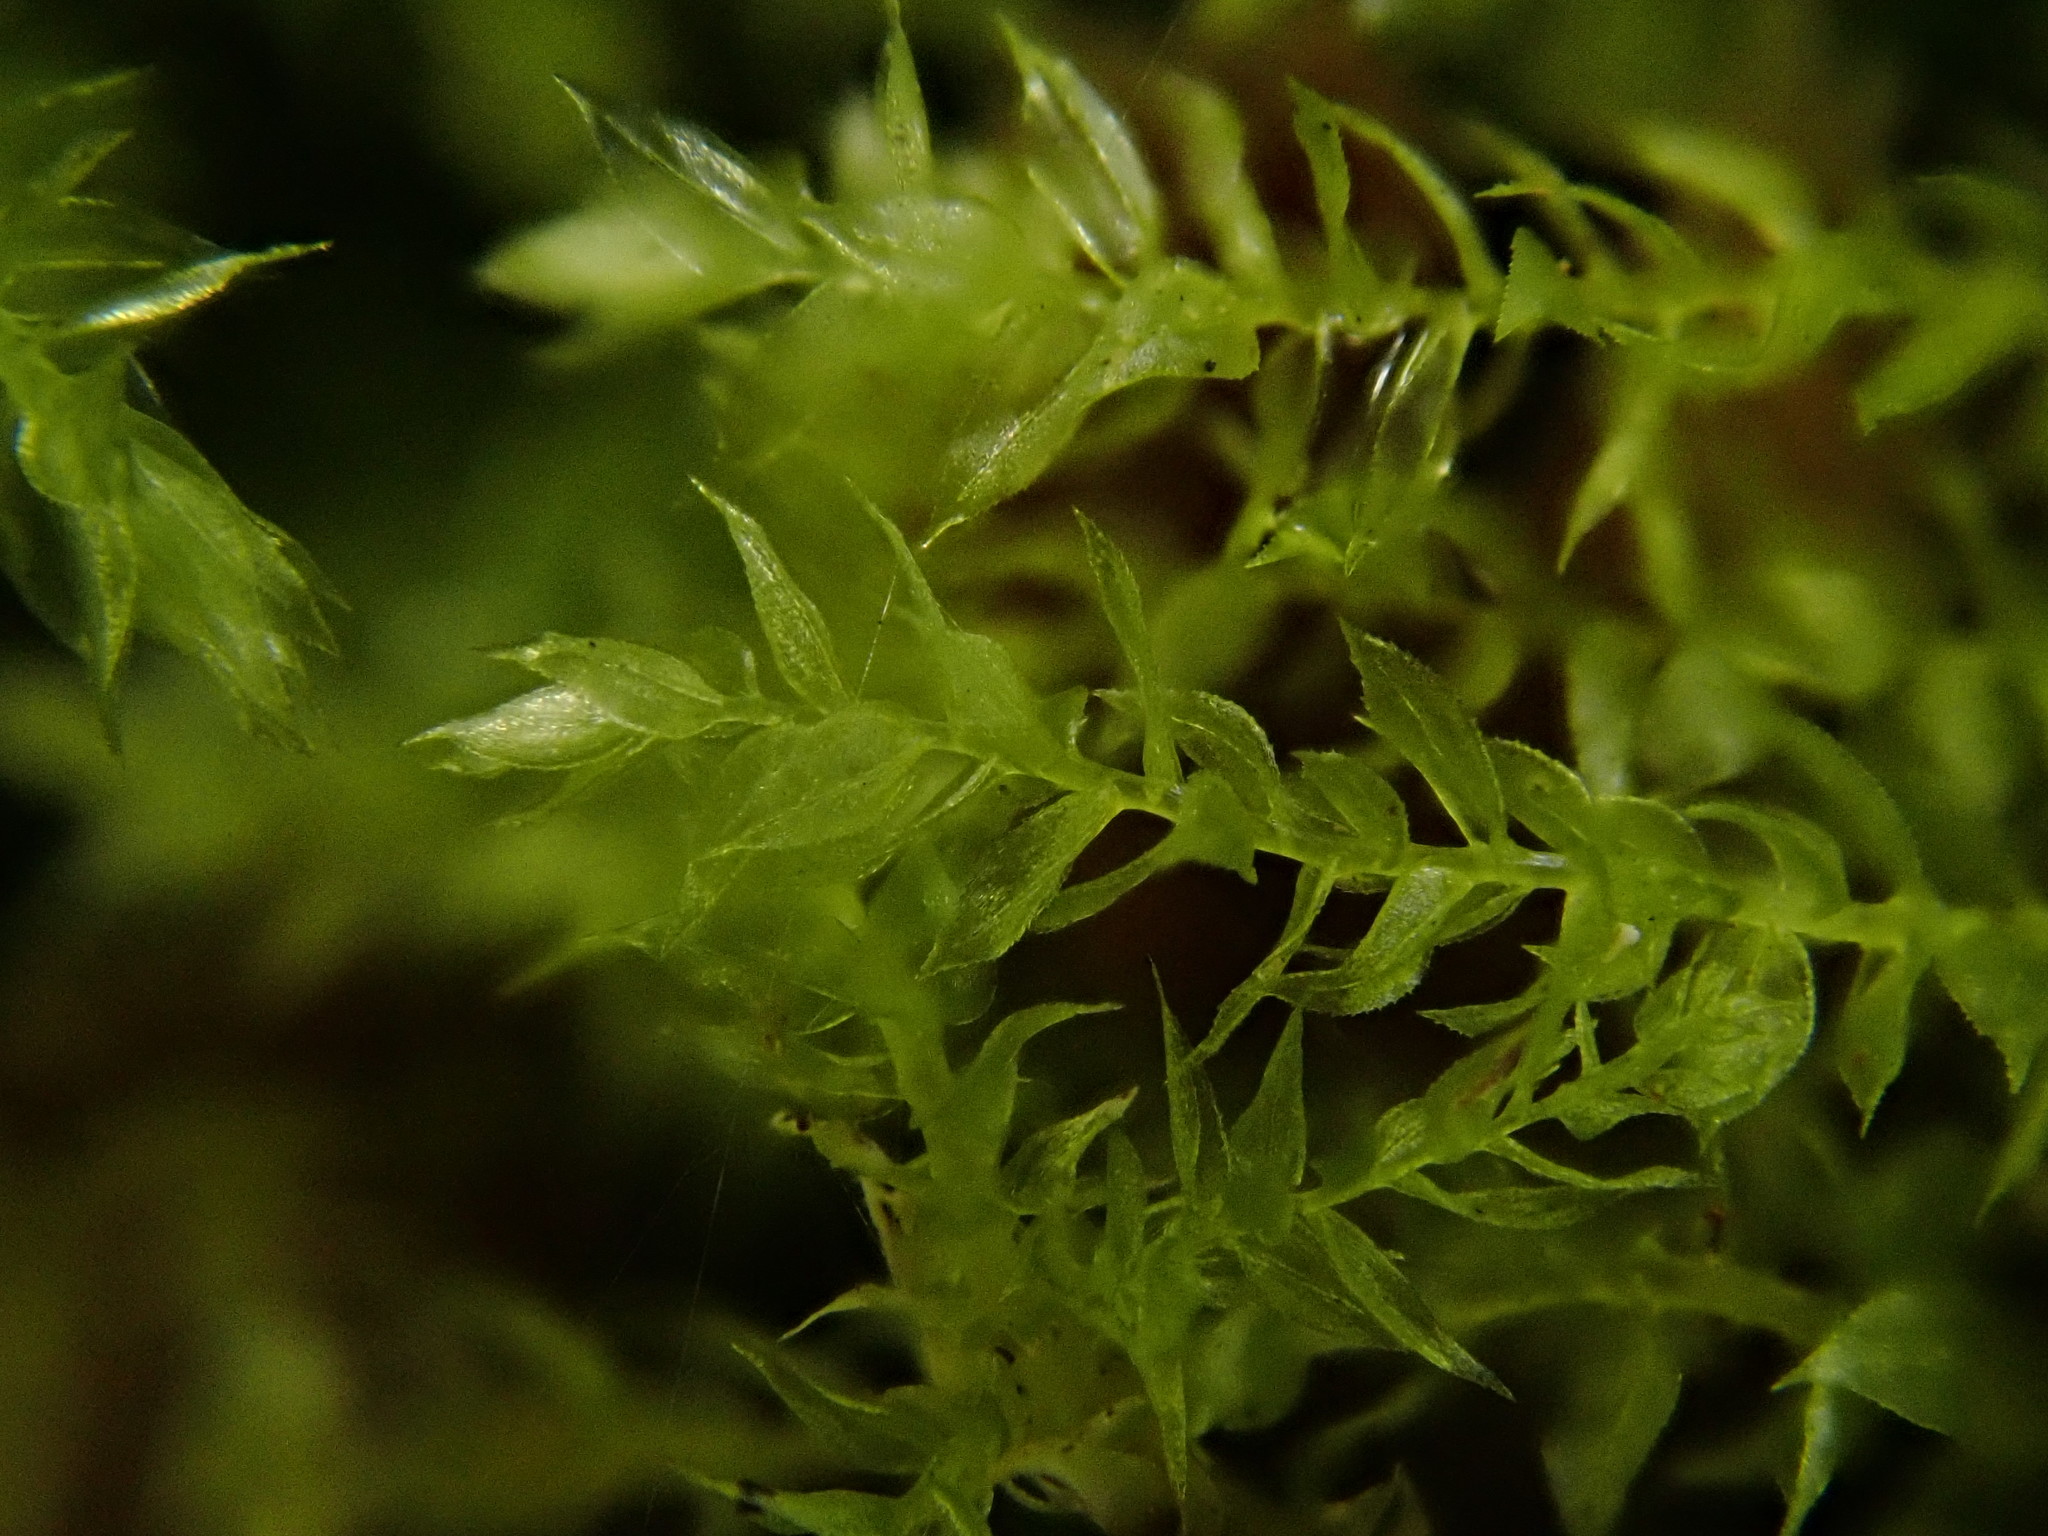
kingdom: Plantae
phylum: Bryophyta
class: Bryopsida
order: Hypnales
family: Brachytheciaceae
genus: Oxyrrhynchium
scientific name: Oxyrrhynchium hians
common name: Spreading beaked moss
